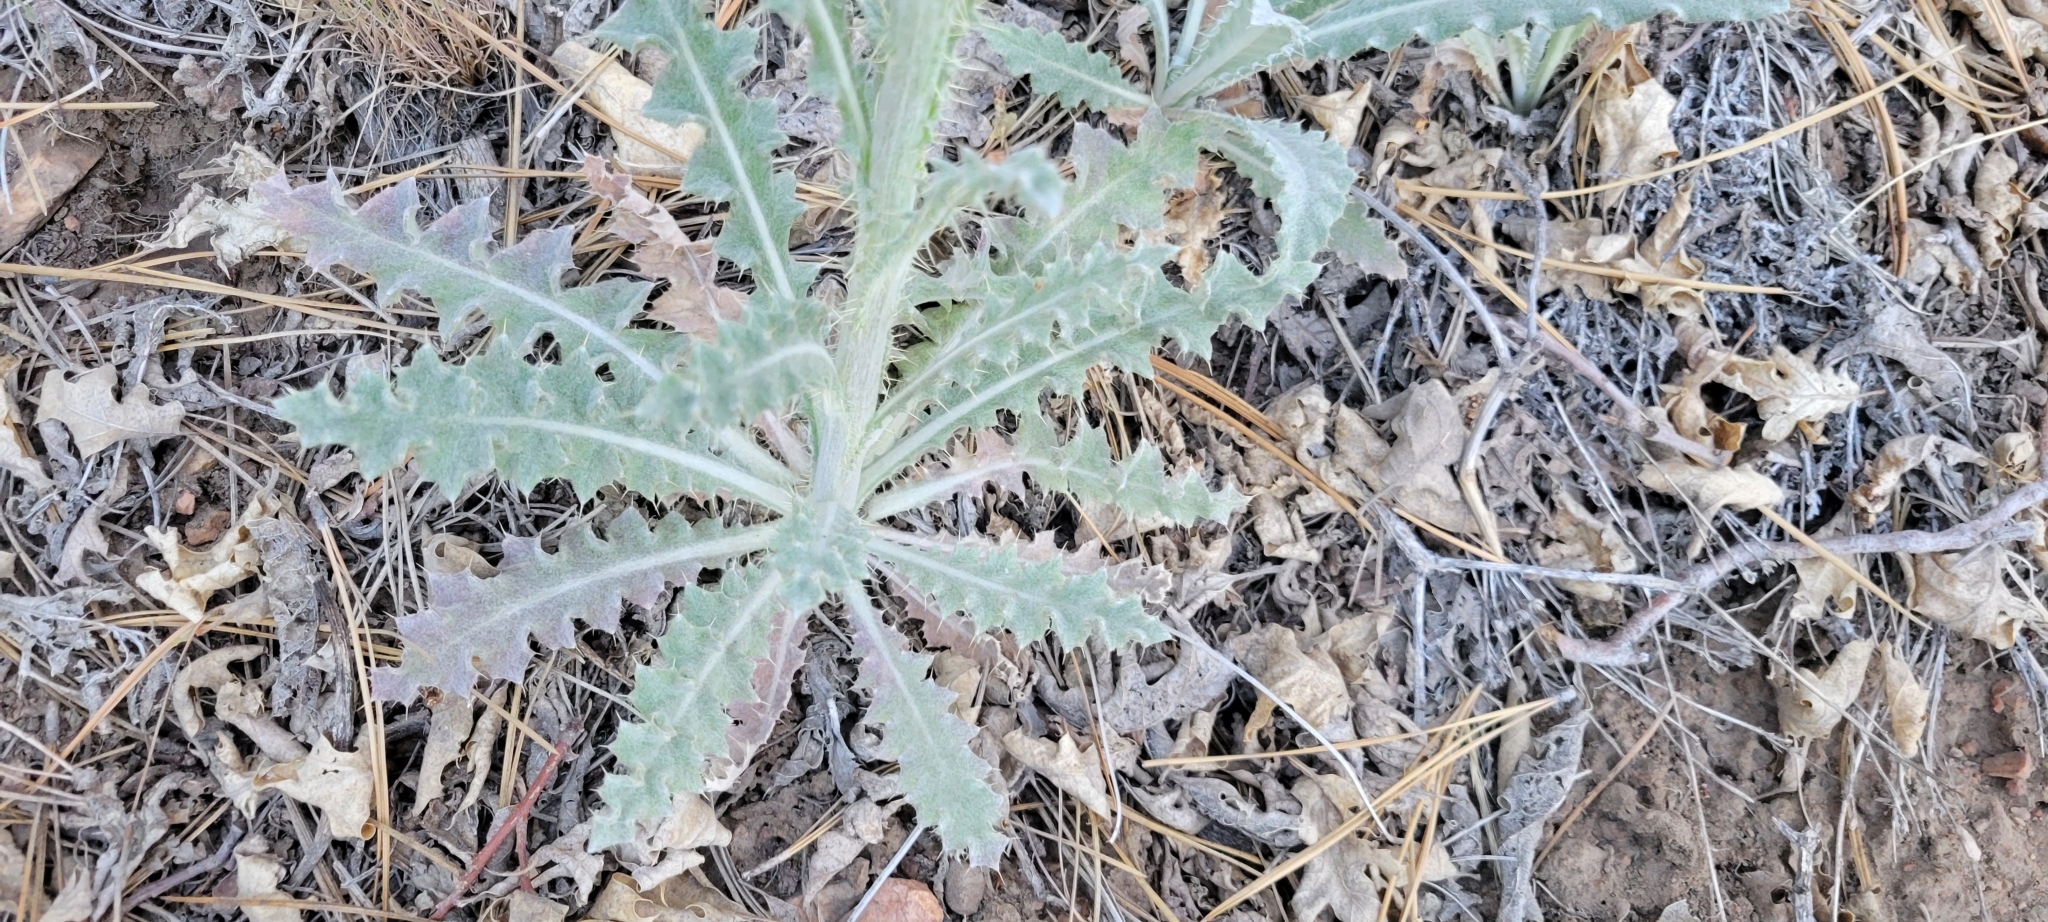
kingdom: Plantae
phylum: Tracheophyta
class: Magnoliopsida
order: Asterales
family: Asteraceae
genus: Cirsium
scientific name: Cirsium occidentale
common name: Western thistle
